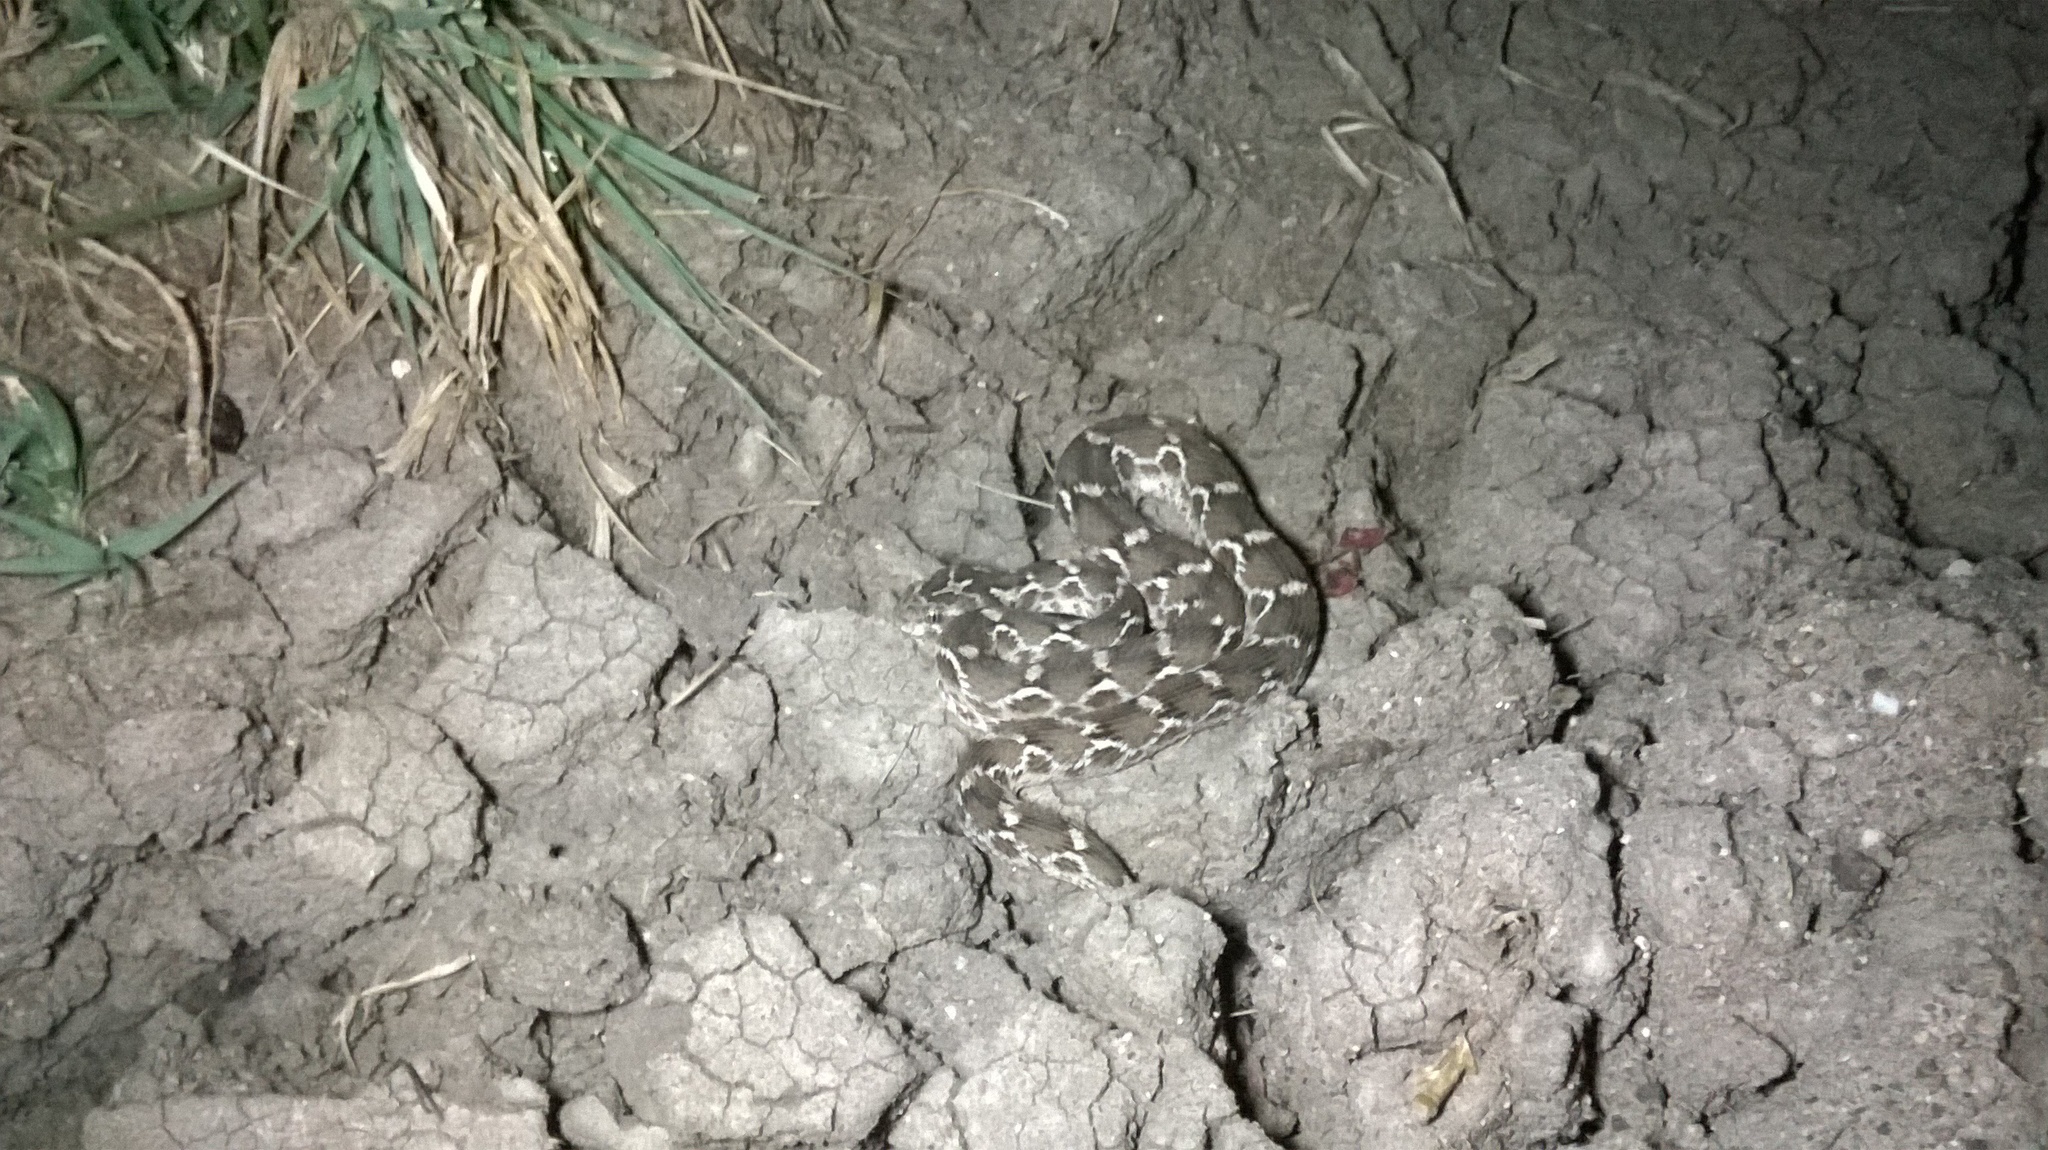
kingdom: Animalia
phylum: Chordata
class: Squamata
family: Viperidae
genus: Echis
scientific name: Echis carinatus
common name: Saw-scaled viper
